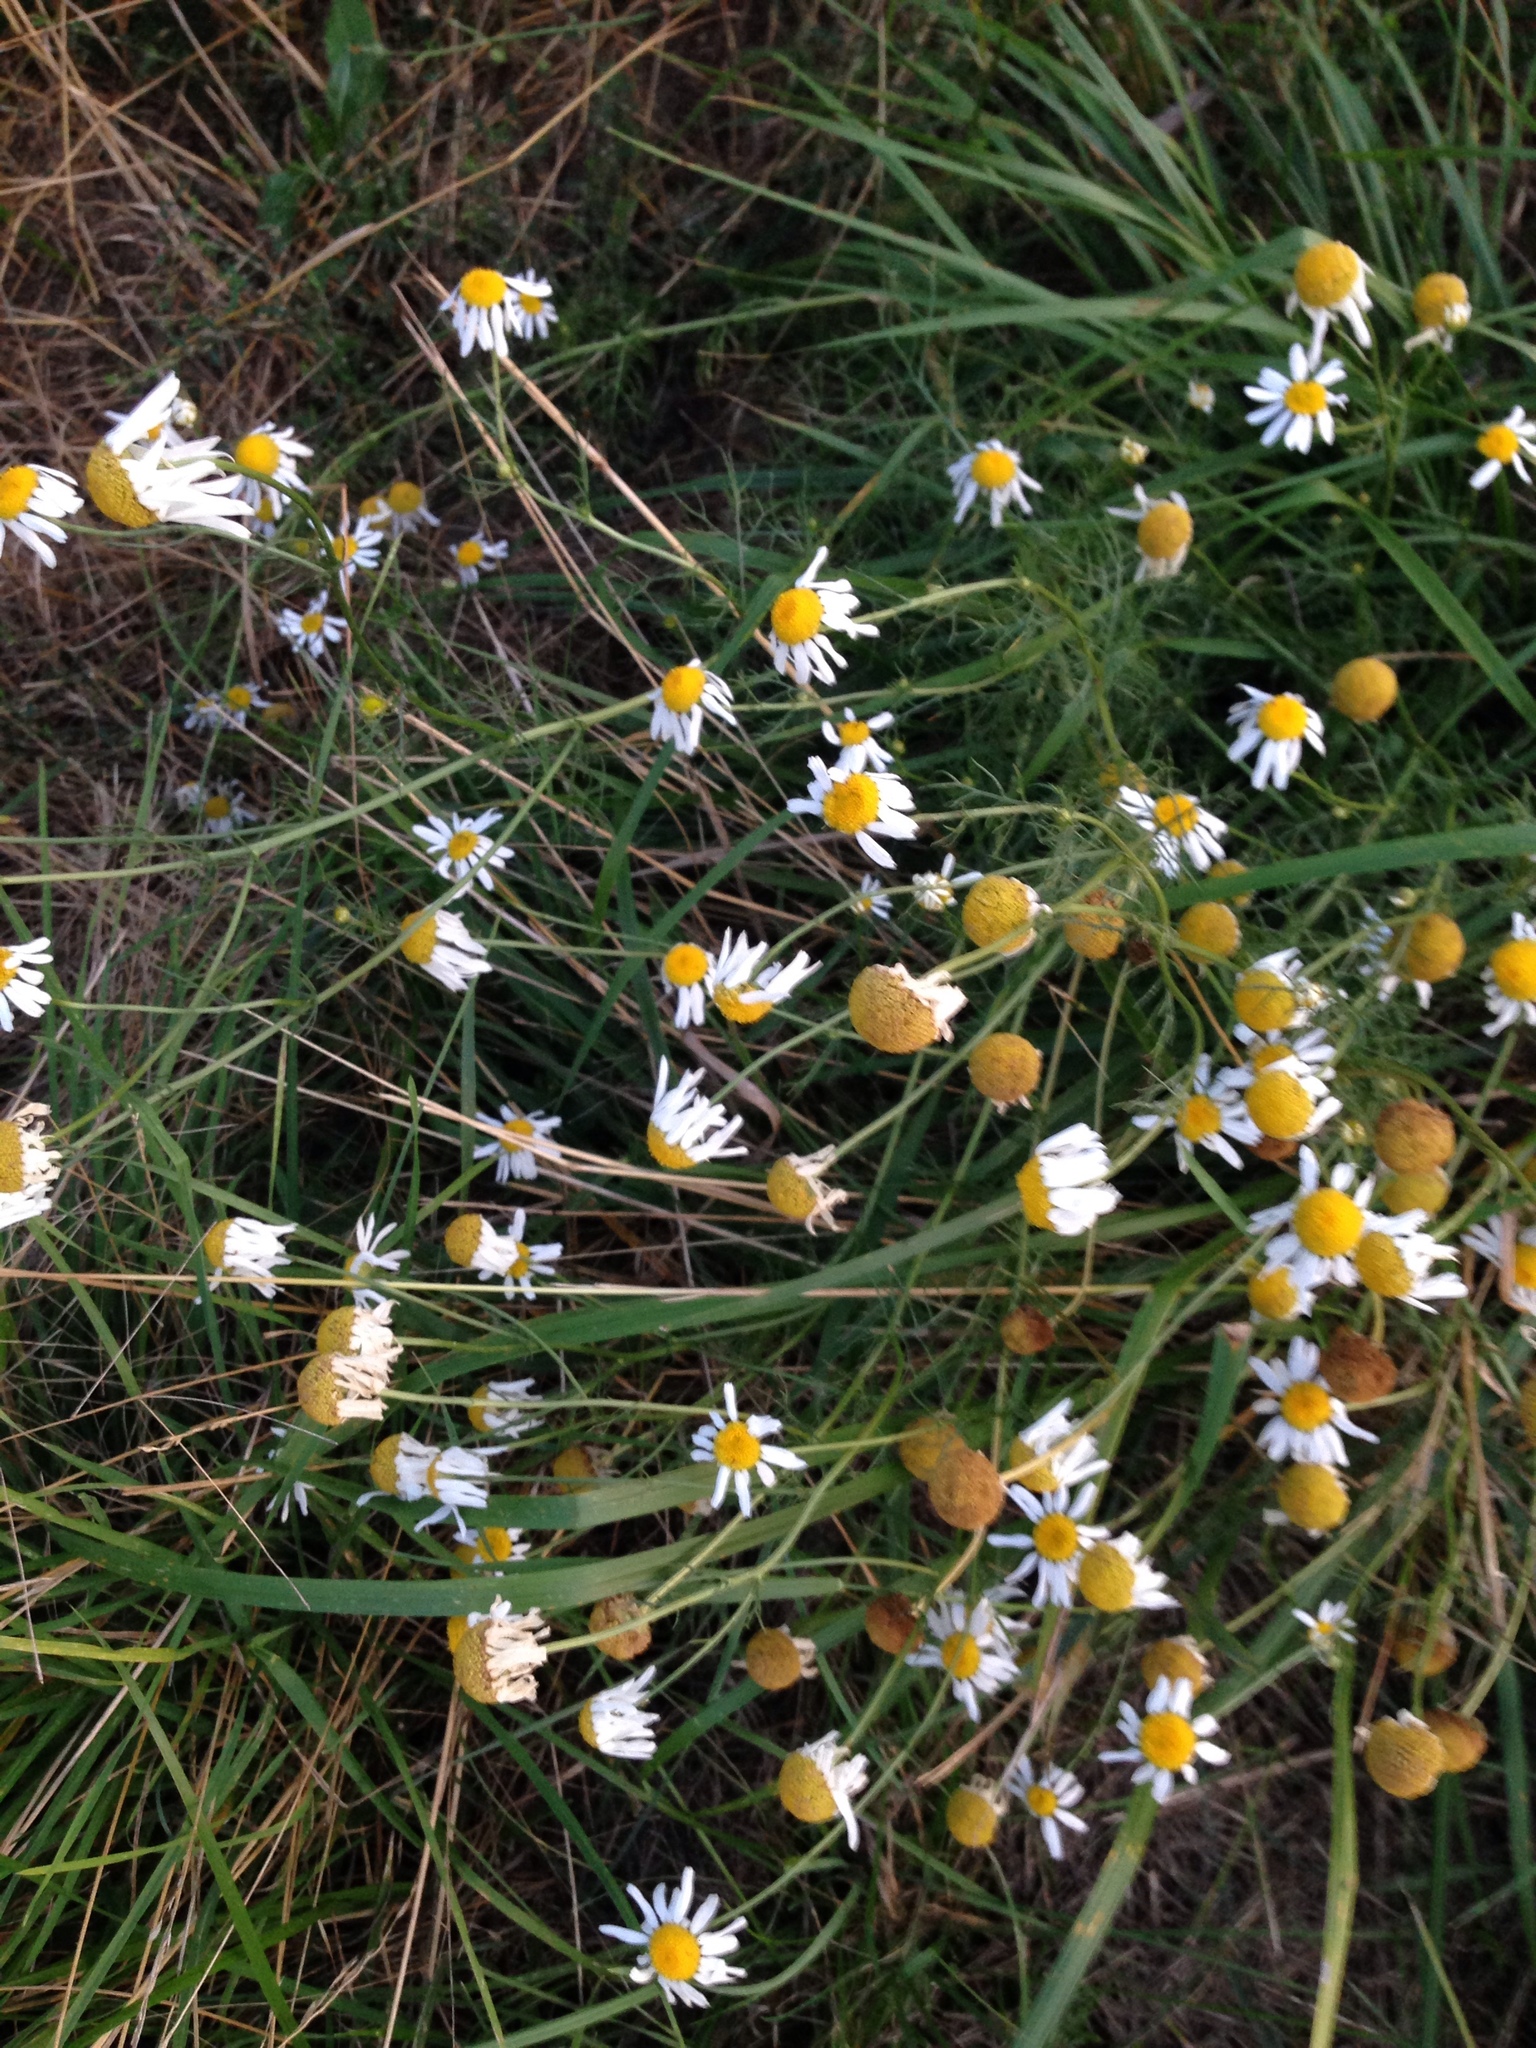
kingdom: Plantae
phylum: Tracheophyta
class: Magnoliopsida
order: Asterales
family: Asteraceae
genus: Matricaria
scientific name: Matricaria chamomilla
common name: Scented mayweed
